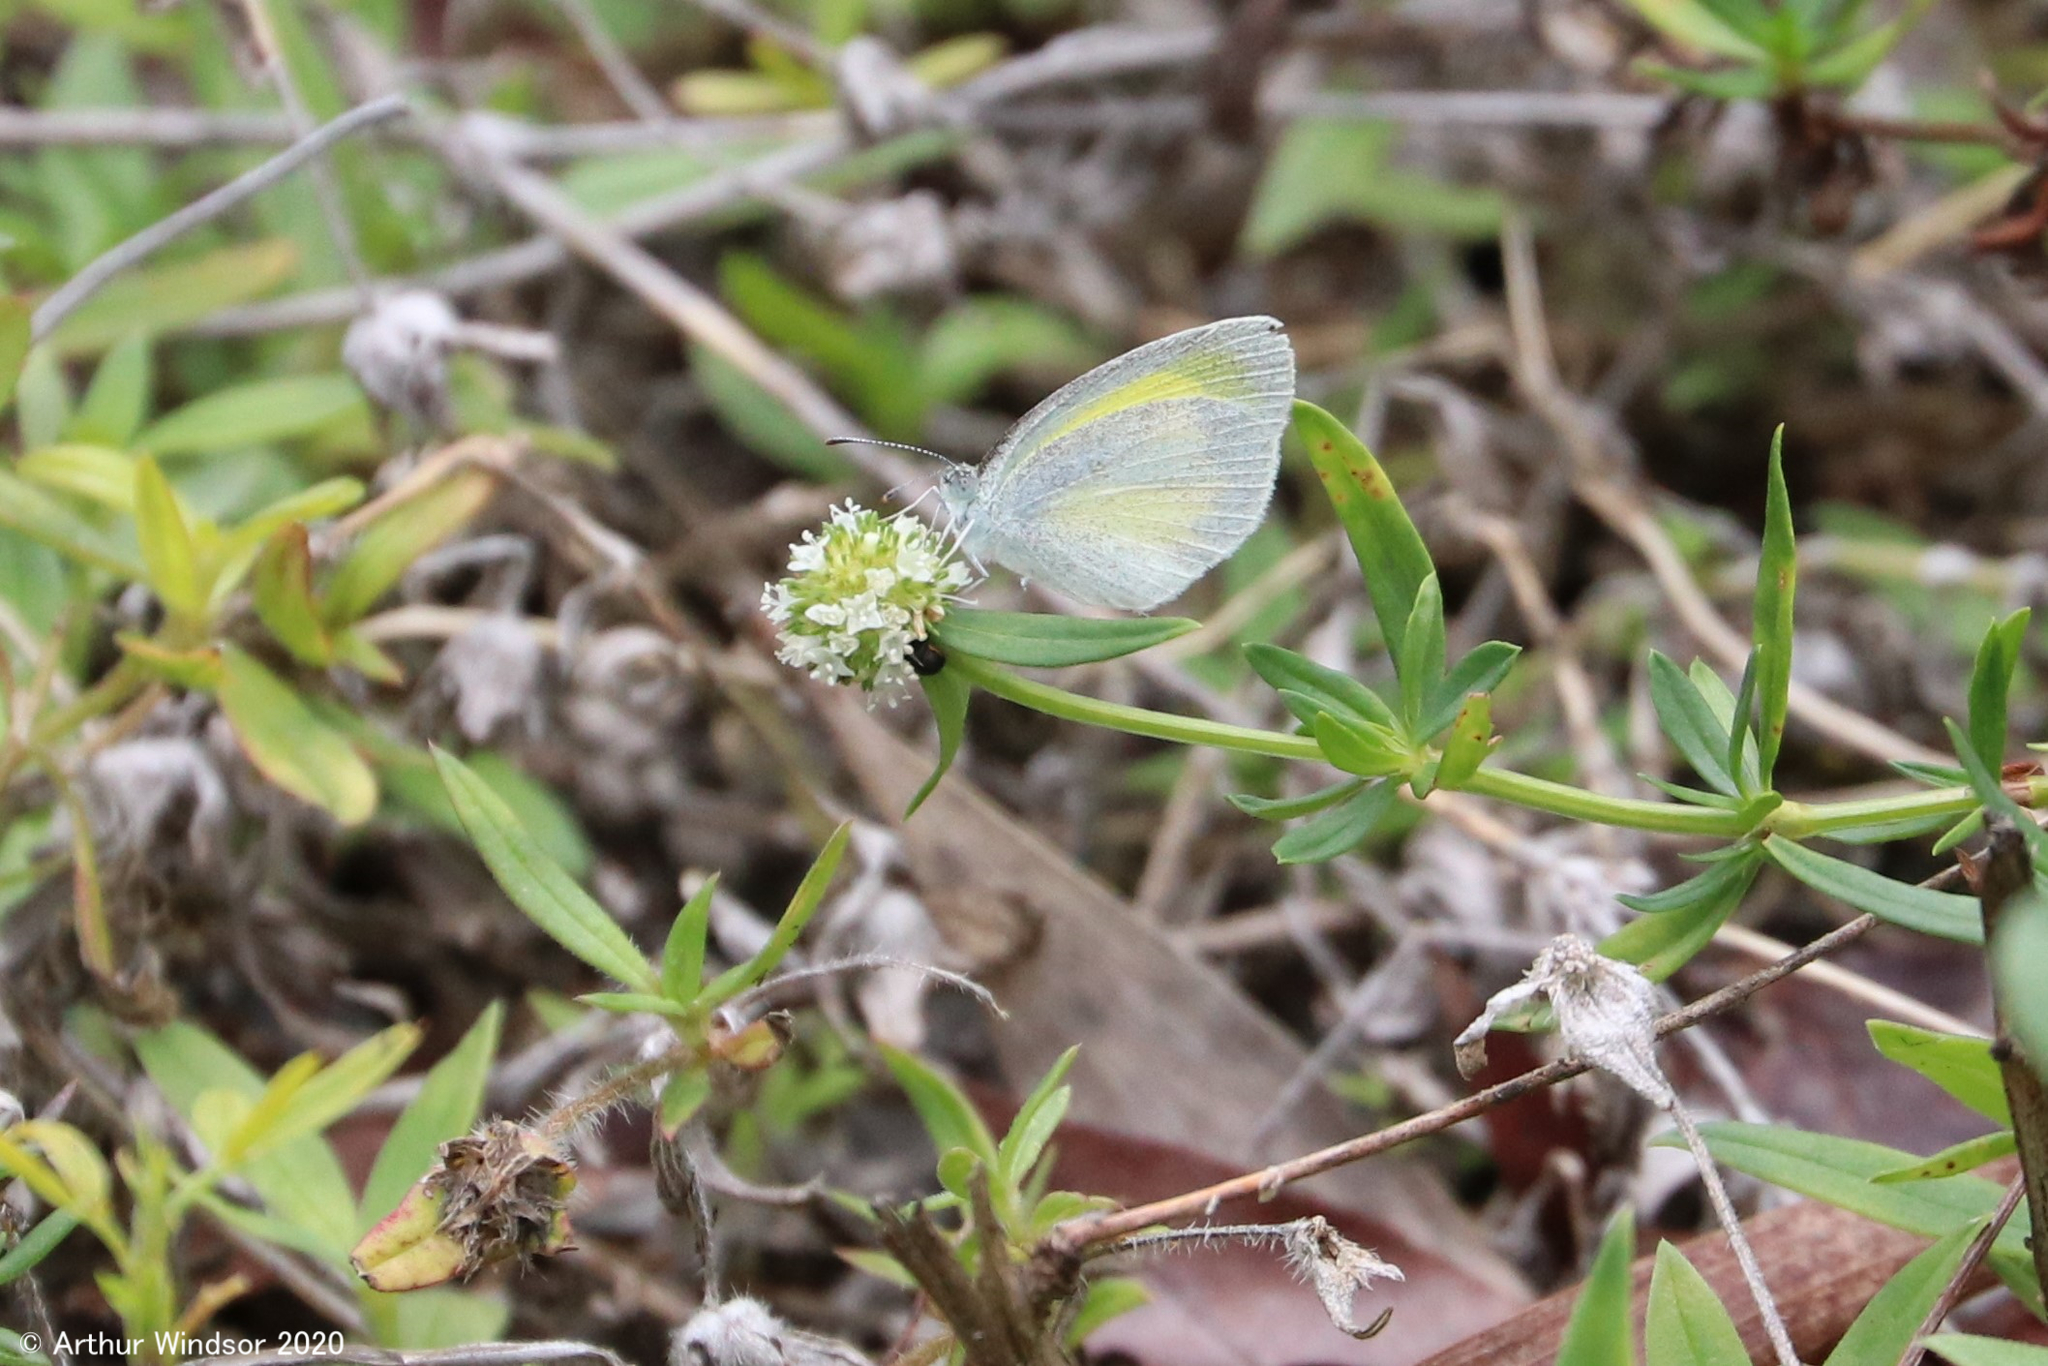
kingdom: Animalia
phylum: Arthropoda
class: Insecta
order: Lepidoptera
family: Pieridae
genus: Eurema
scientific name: Eurema daira
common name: Barred sulphur
